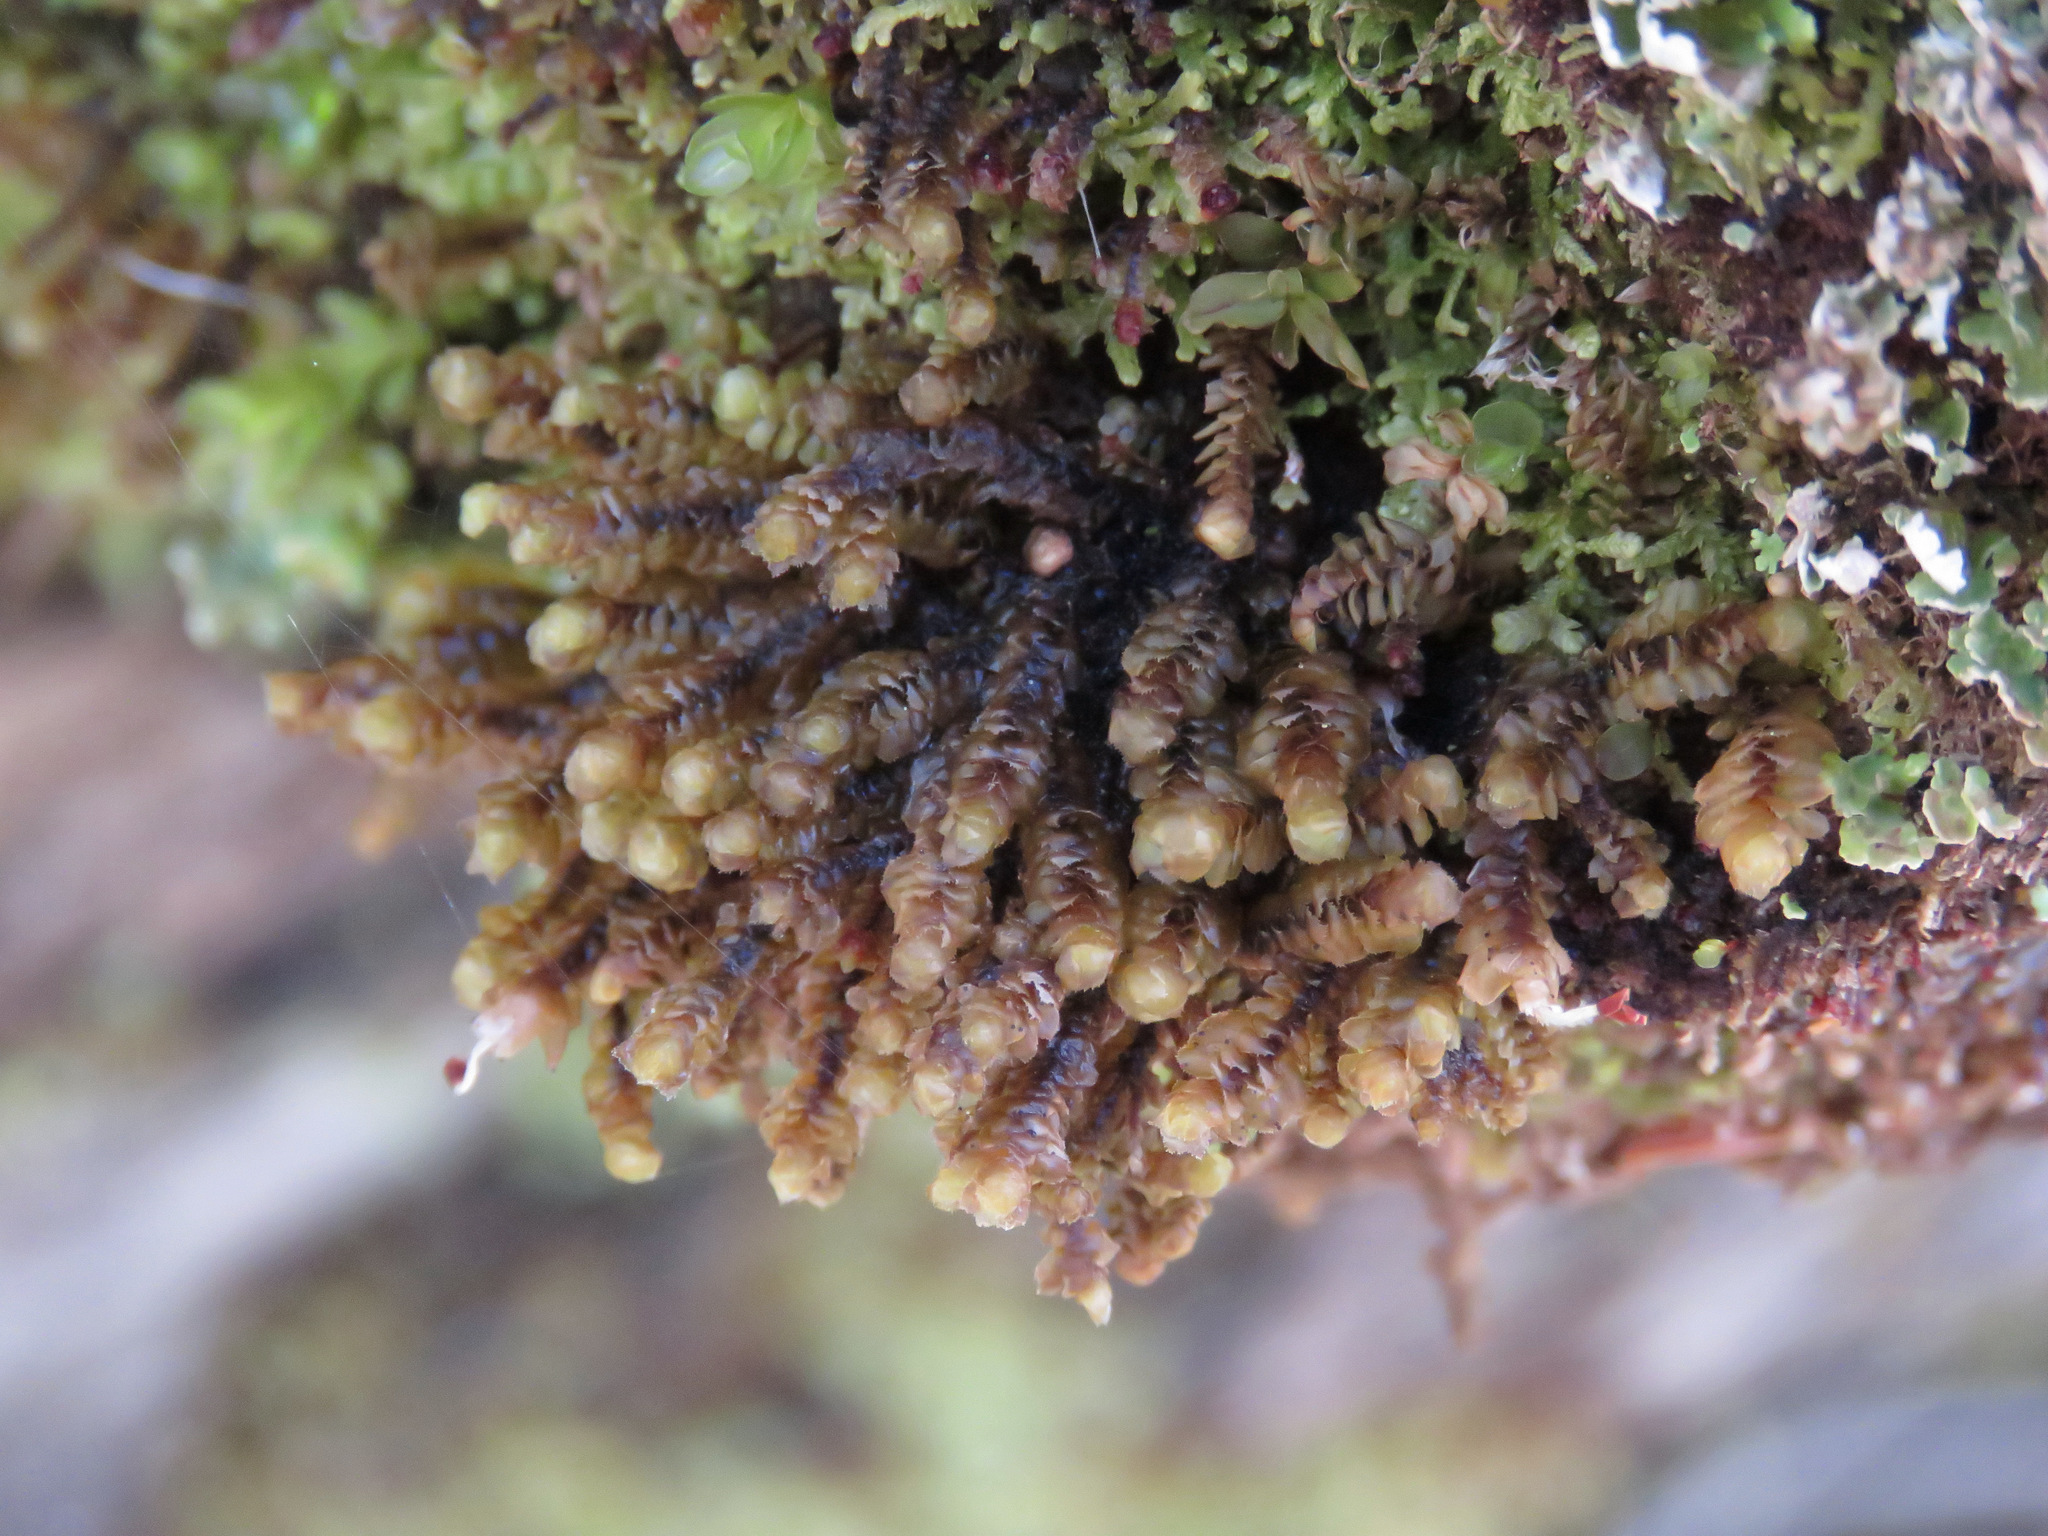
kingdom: Plantae
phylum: Marchantiophyta
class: Jungermanniopsida
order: Jungermanniales
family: Scapaniaceae
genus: Scapania
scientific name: Scapania bolanderi
